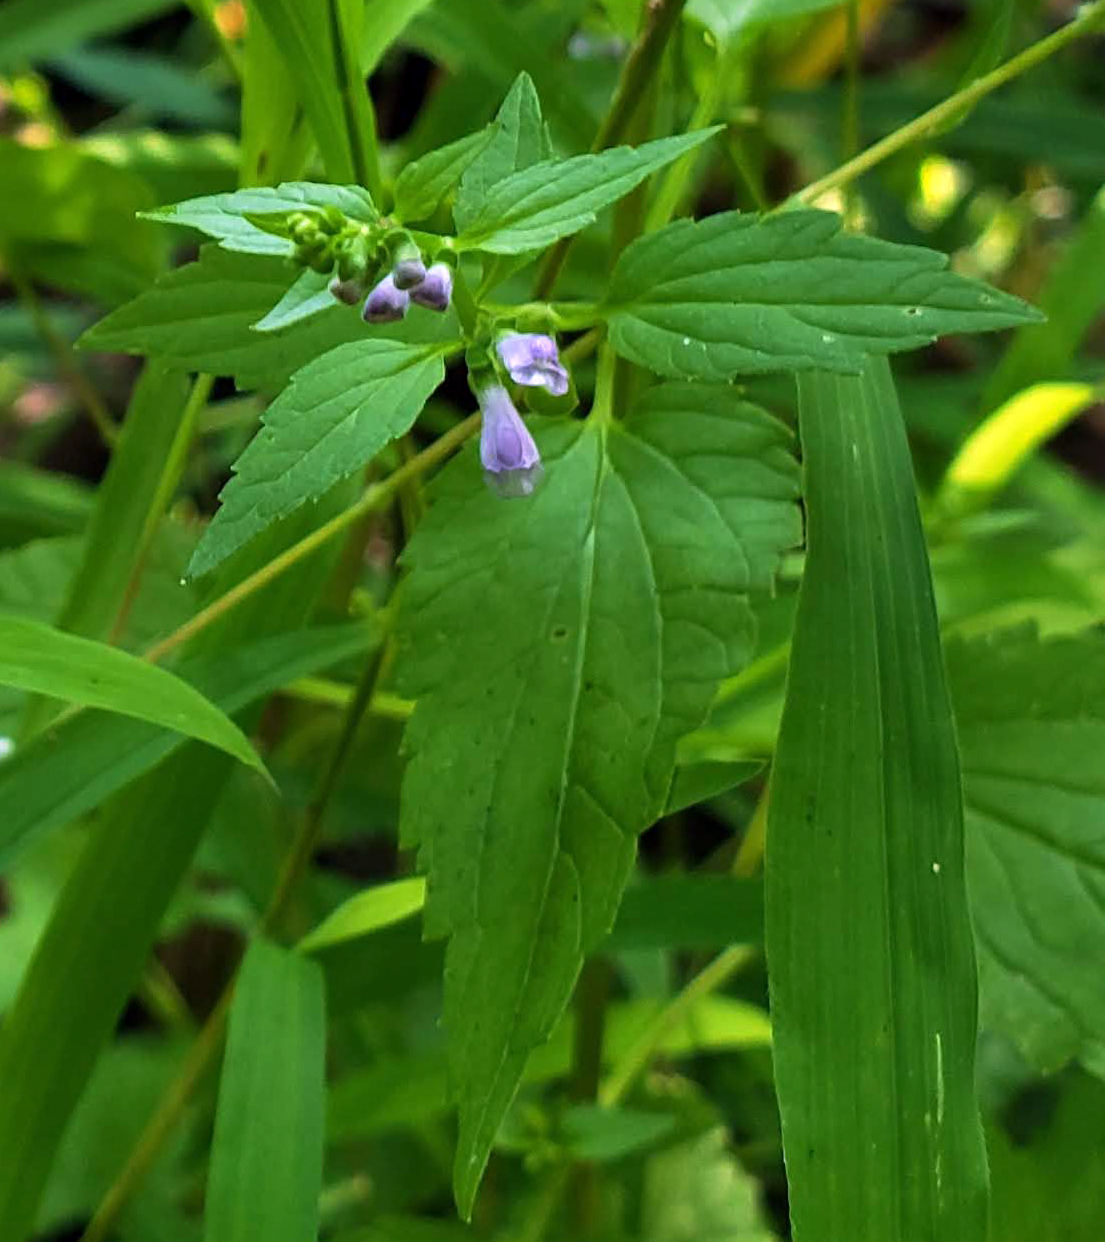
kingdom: Plantae
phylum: Tracheophyta
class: Magnoliopsida
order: Lamiales
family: Lamiaceae
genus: Scutellaria
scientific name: Scutellaria lateriflora
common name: Blue skullcap
